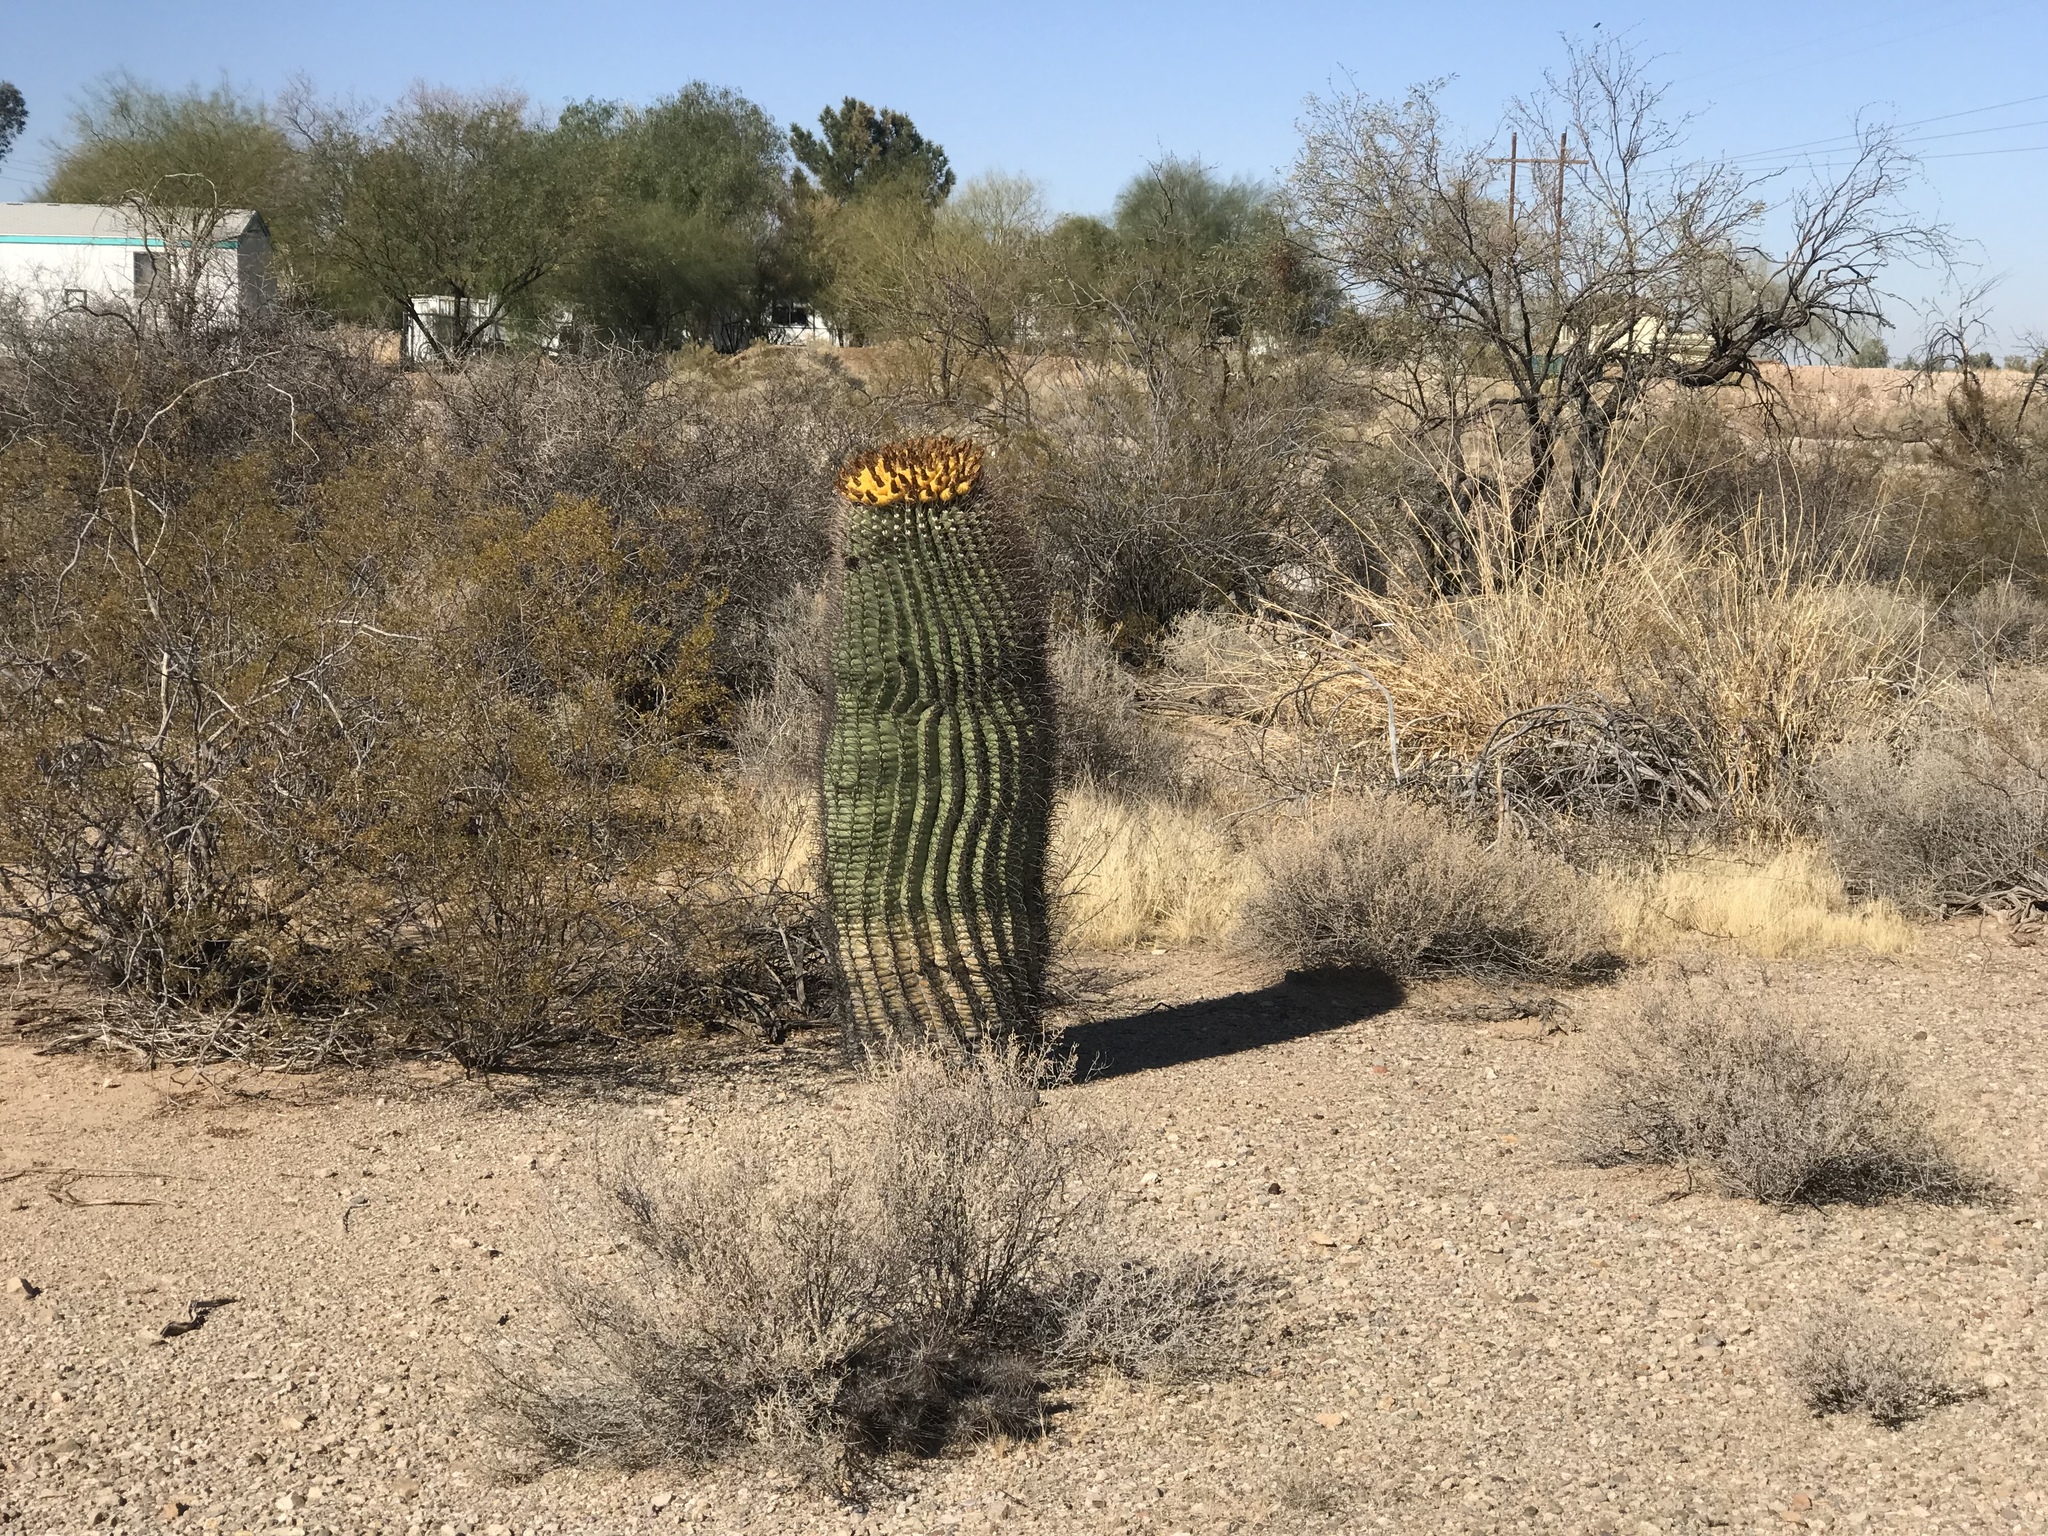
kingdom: Plantae
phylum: Tracheophyta
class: Magnoliopsida
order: Caryophyllales
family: Cactaceae
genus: Ferocactus
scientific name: Ferocactus wislizeni
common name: Candy barrel cactus
